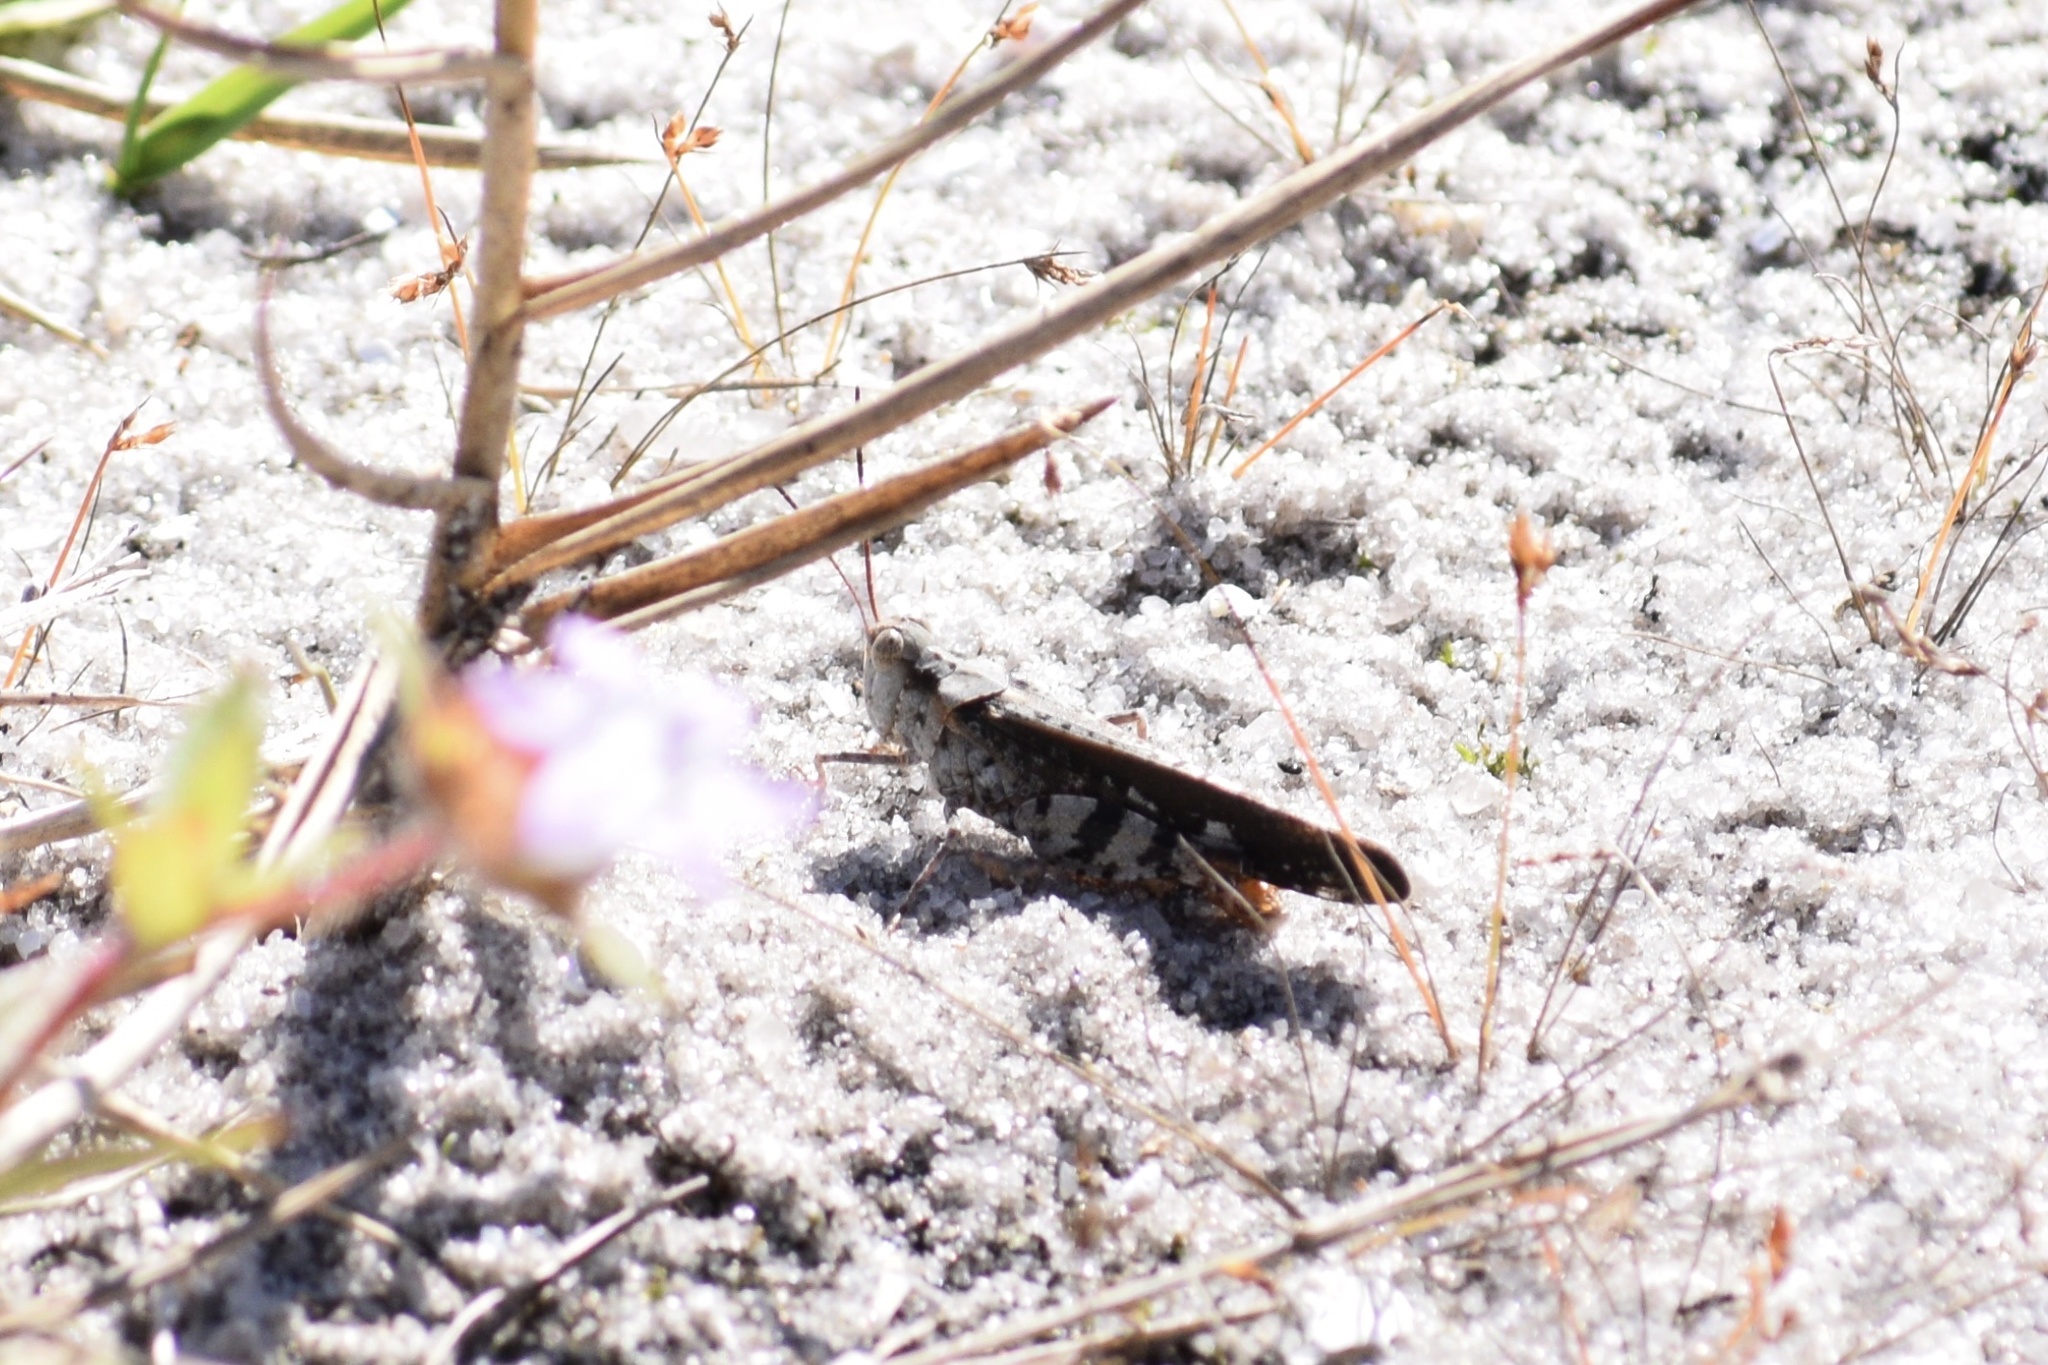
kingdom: Animalia
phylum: Arthropoda
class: Insecta
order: Orthoptera
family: Acrididae
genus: Spharagemon
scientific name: Spharagemon marmoratum
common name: Marbled grasshopper
